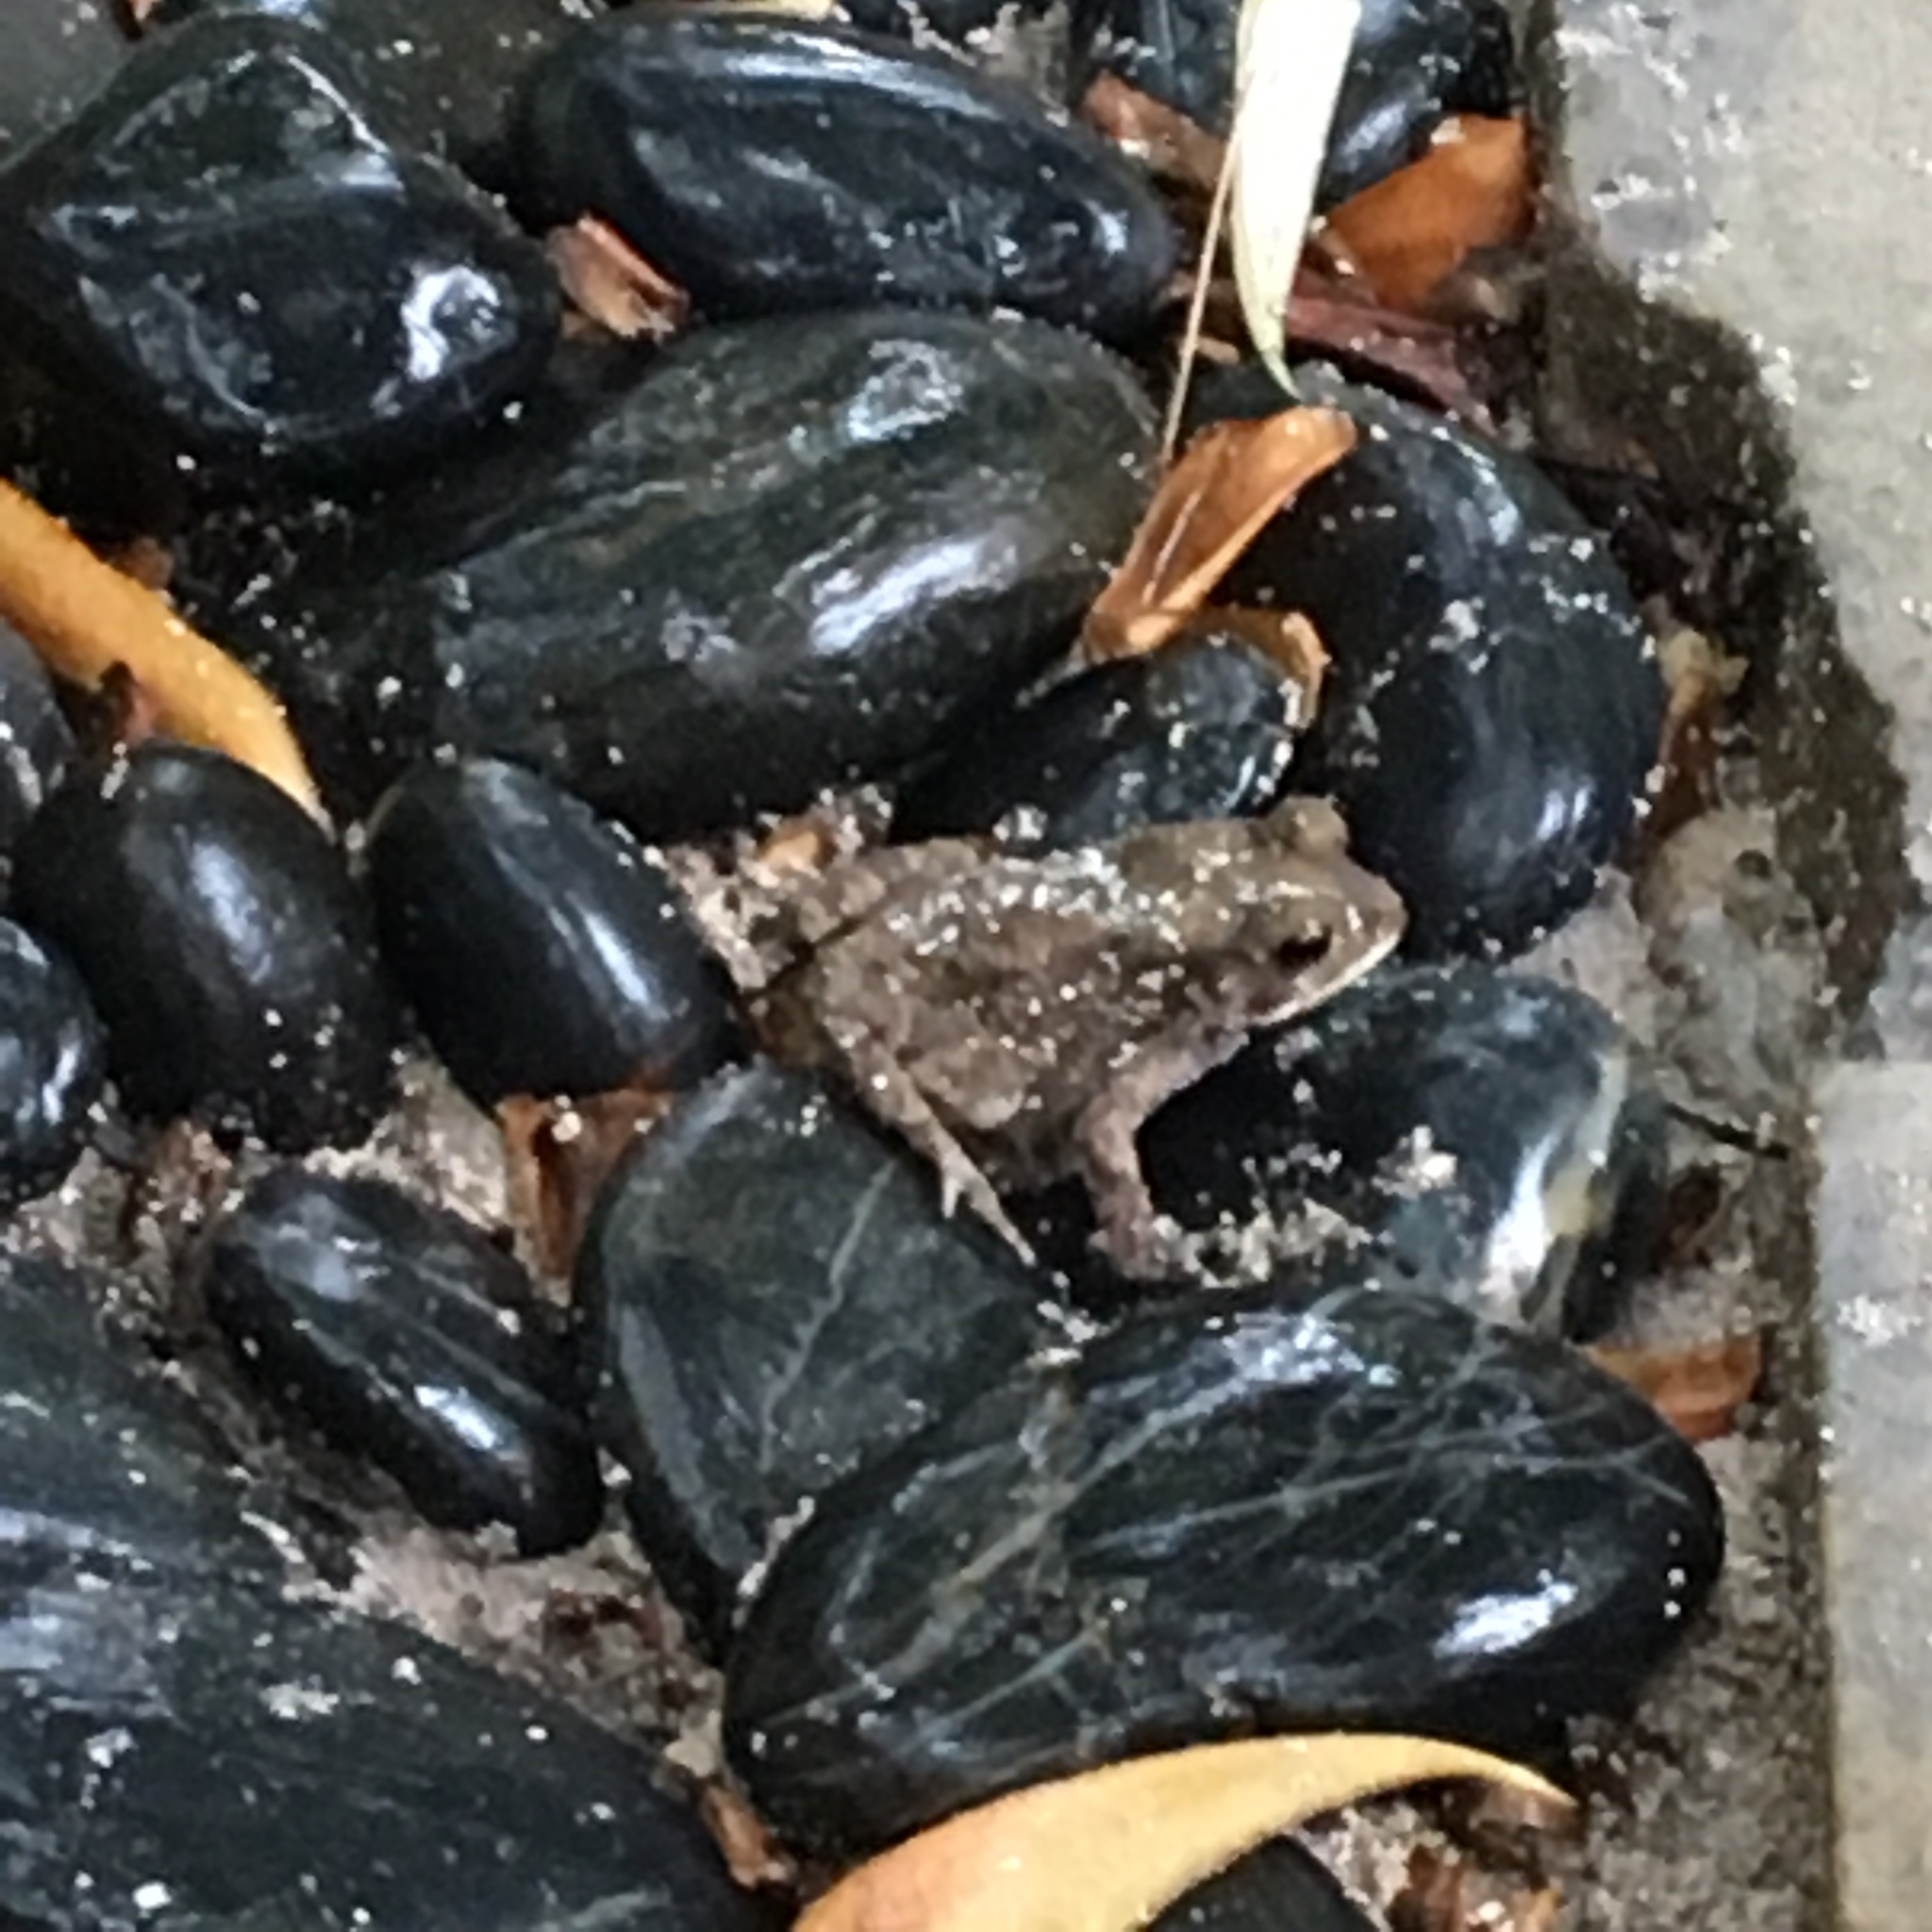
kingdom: Animalia
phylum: Chordata
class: Amphibia
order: Anura
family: Bufonidae
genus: Duttaphrynus
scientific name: Duttaphrynus melanostictus
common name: Common sunda toad
